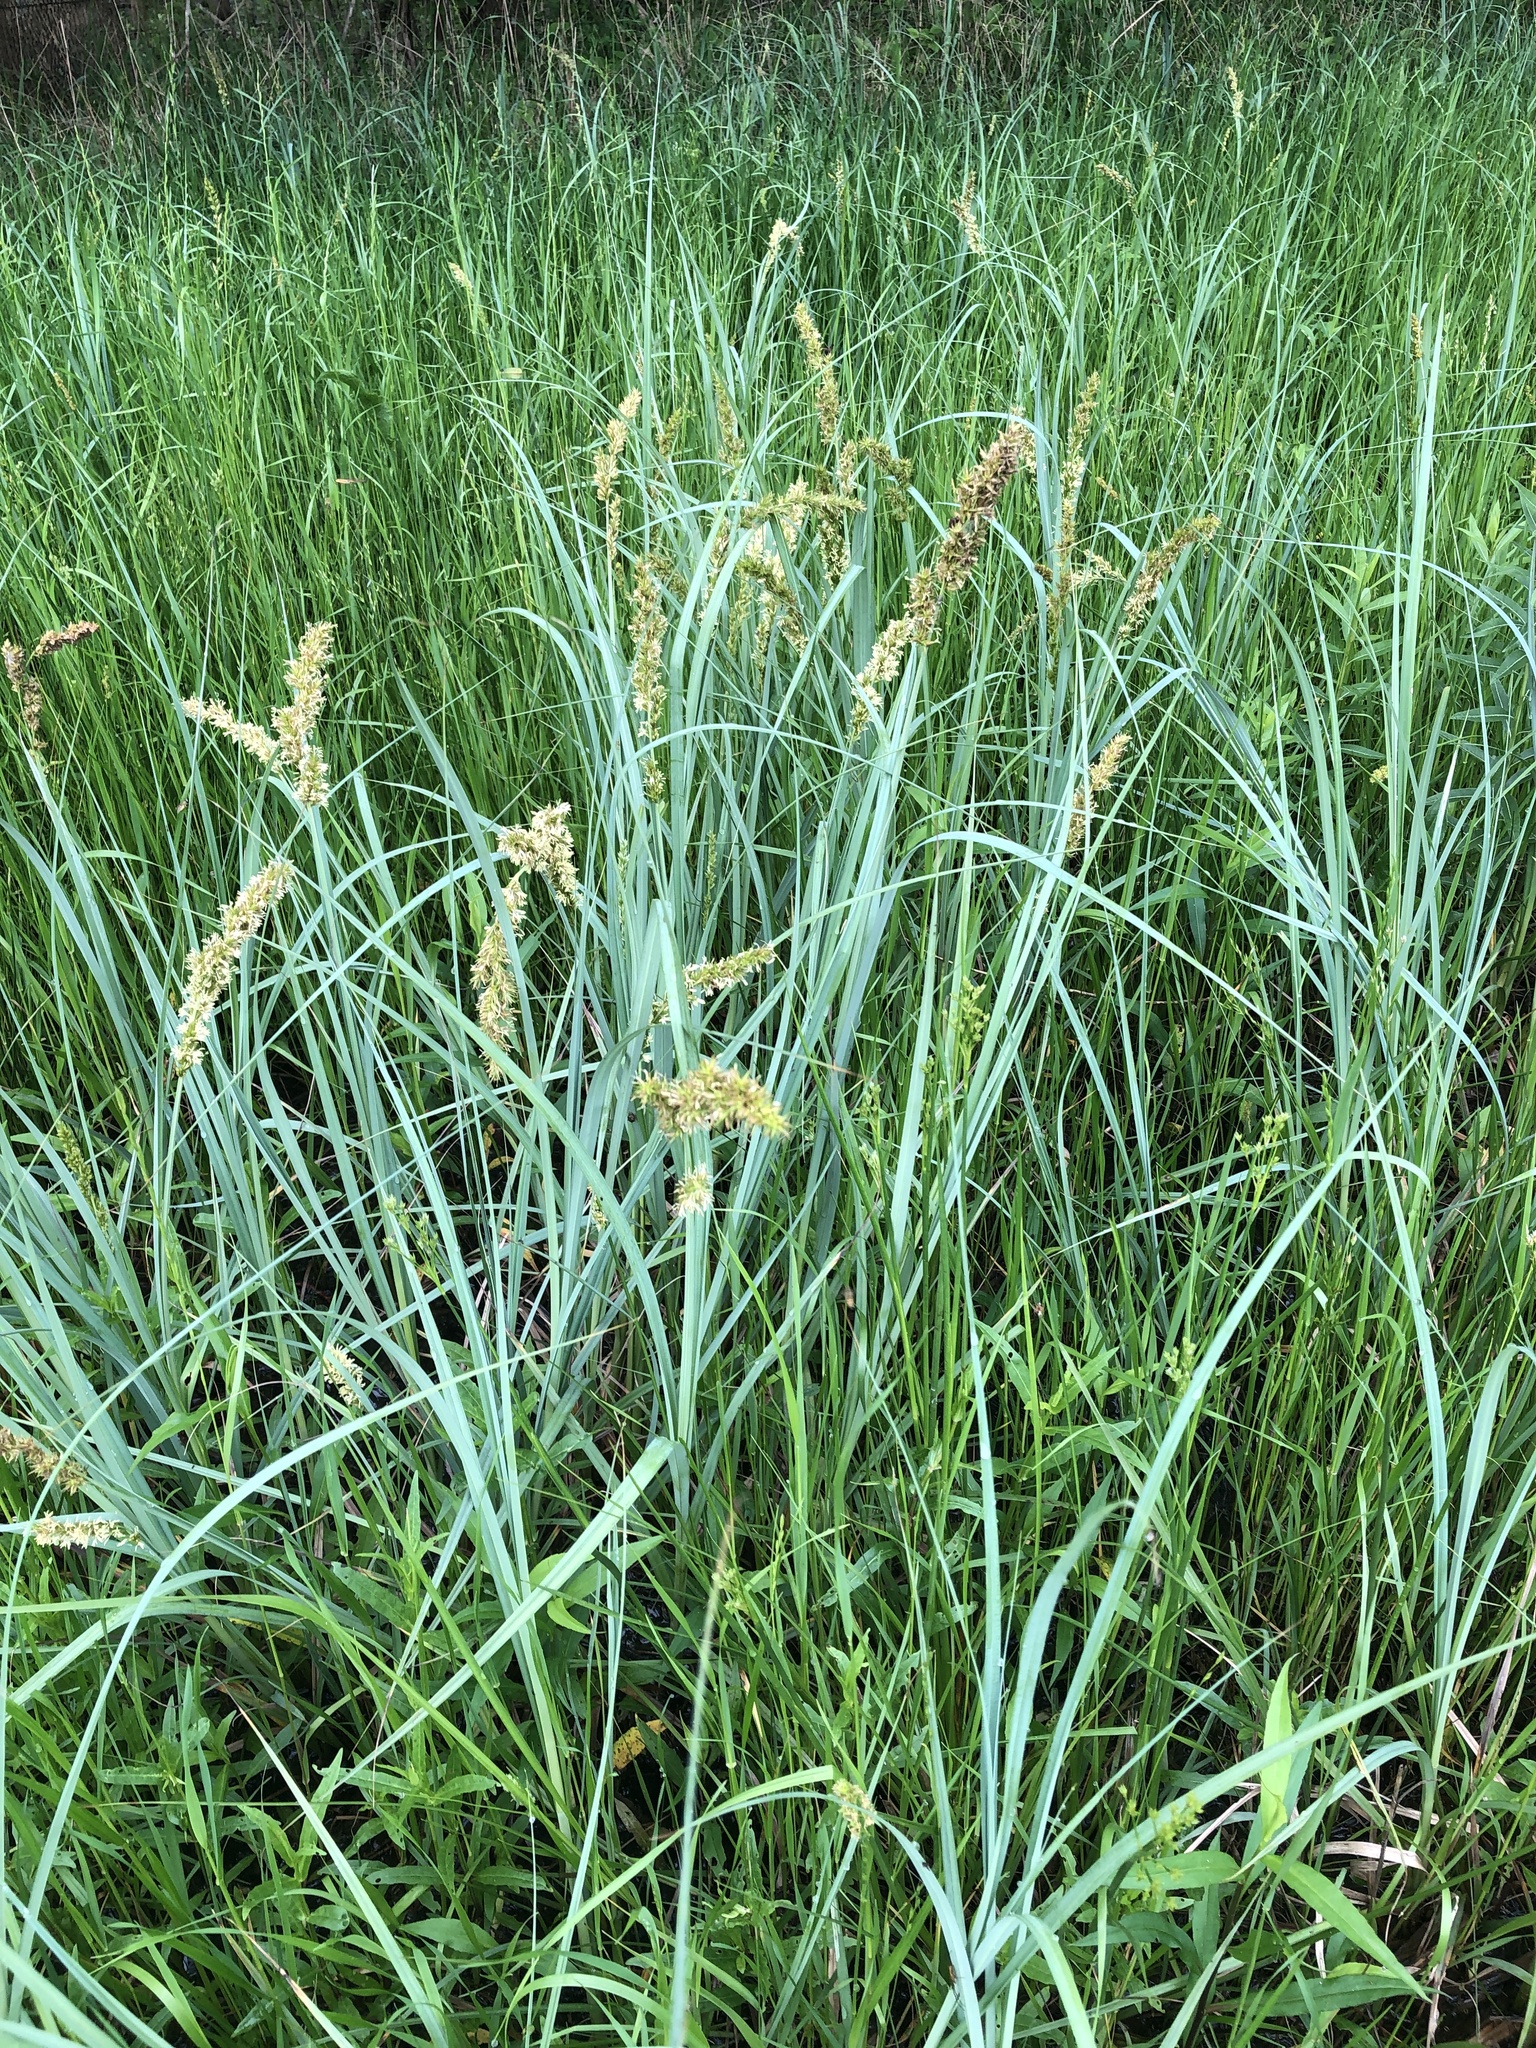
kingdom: Plantae
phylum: Tracheophyta
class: Liliopsida
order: Poales
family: Cyperaceae
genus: Carex
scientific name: Carex crus-corvi
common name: Crow-spur sedge
